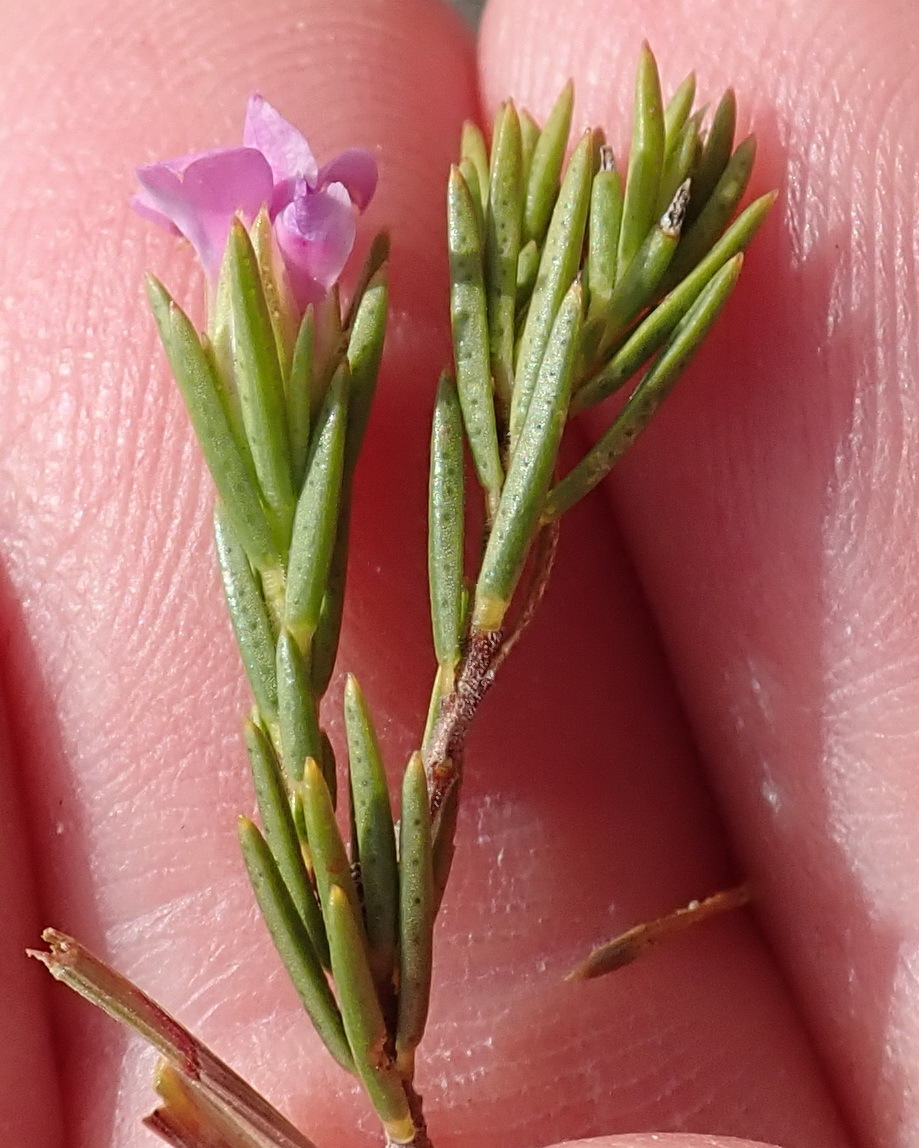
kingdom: Plantae
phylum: Tracheophyta
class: Magnoliopsida
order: Sapindales
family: Rutaceae
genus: Acmadenia
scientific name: Acmadenia obtusata
